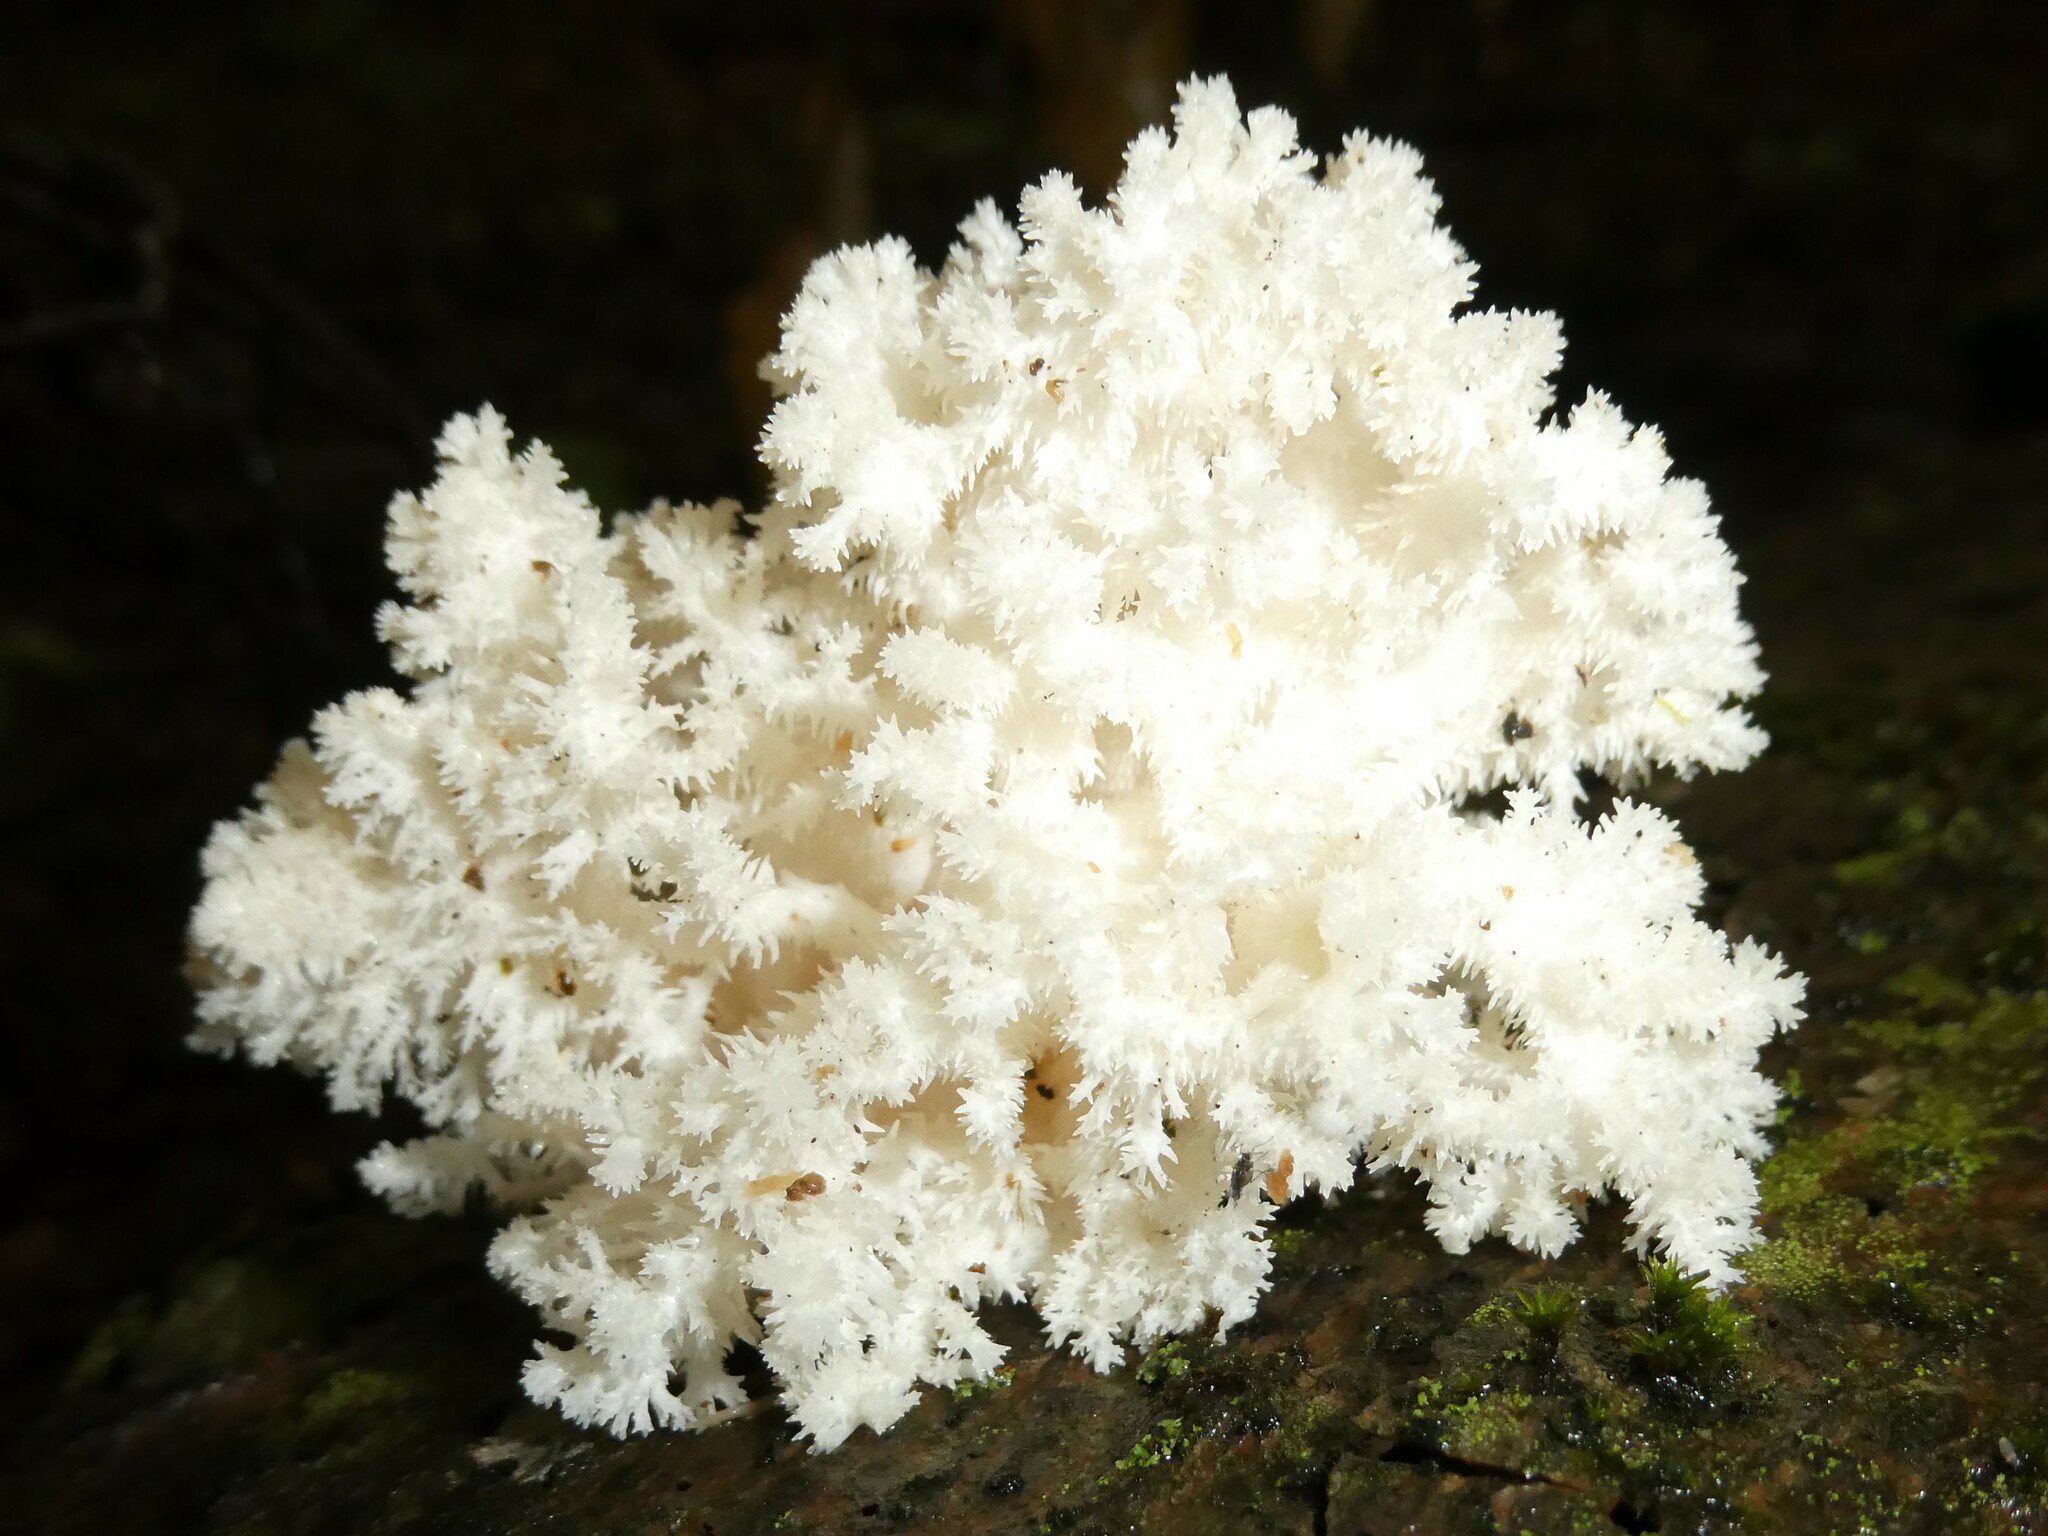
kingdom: Fungi
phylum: Basidiomycota
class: Agaricomycetes
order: Russulales
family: Hericiaceae
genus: Hericium
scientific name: Hericium coralloides
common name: Coral tooth
